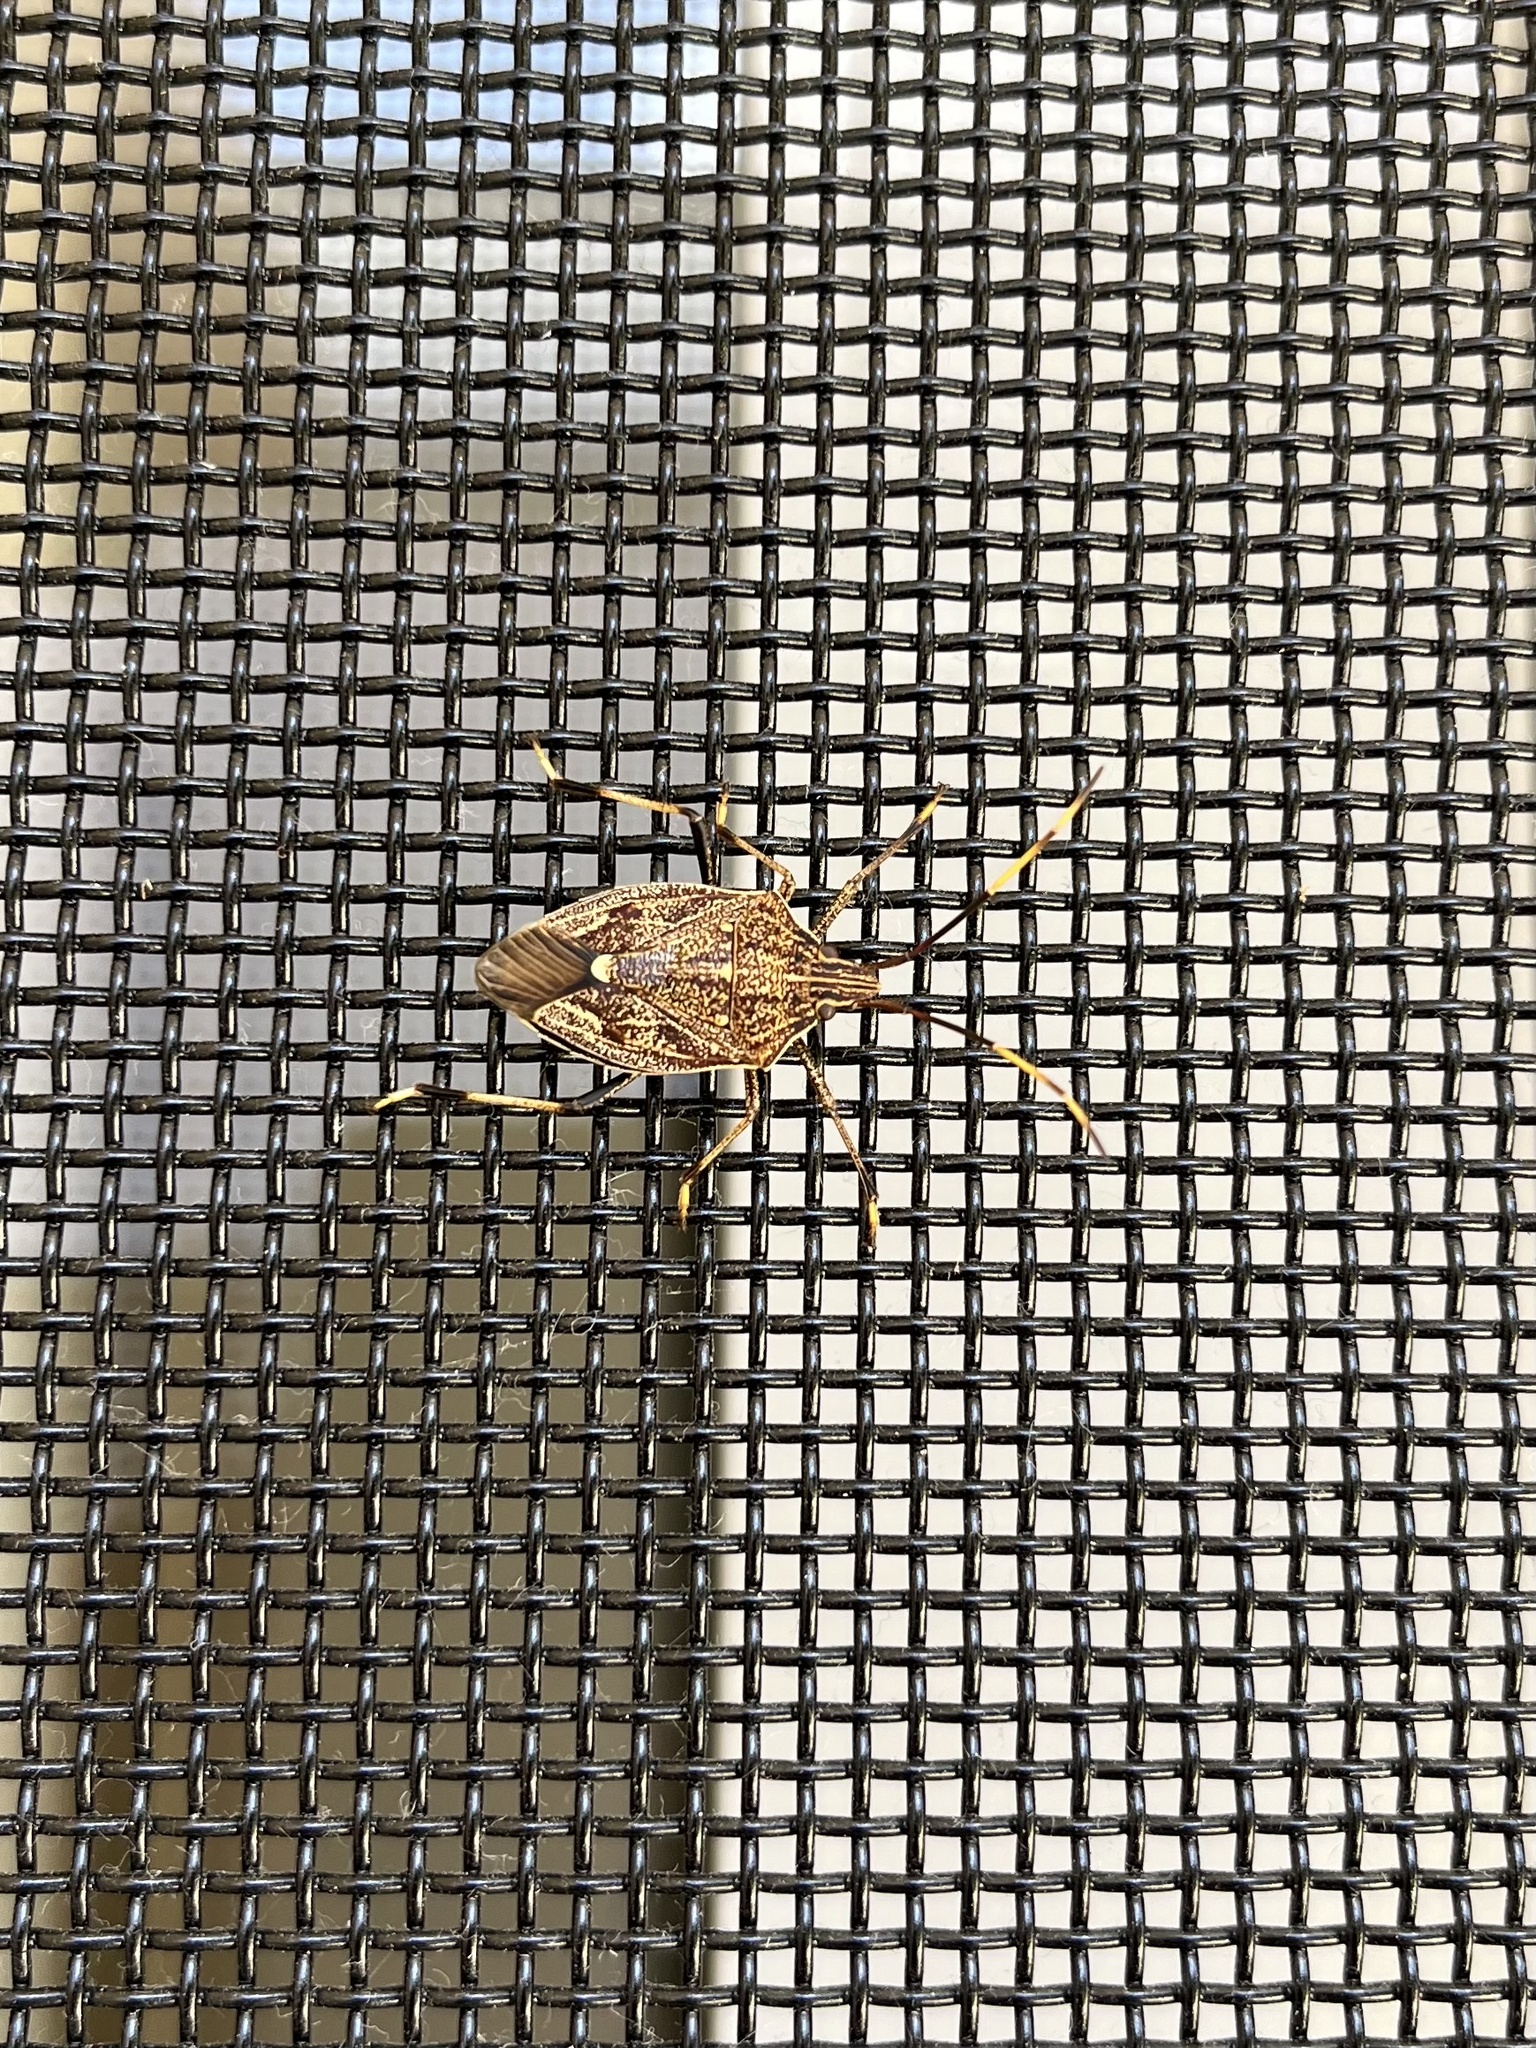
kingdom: Animalia
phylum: Arthropoda
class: Insecta
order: Hemiptera
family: Pentatomidae
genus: Poecilometis
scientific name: Poecilometis
